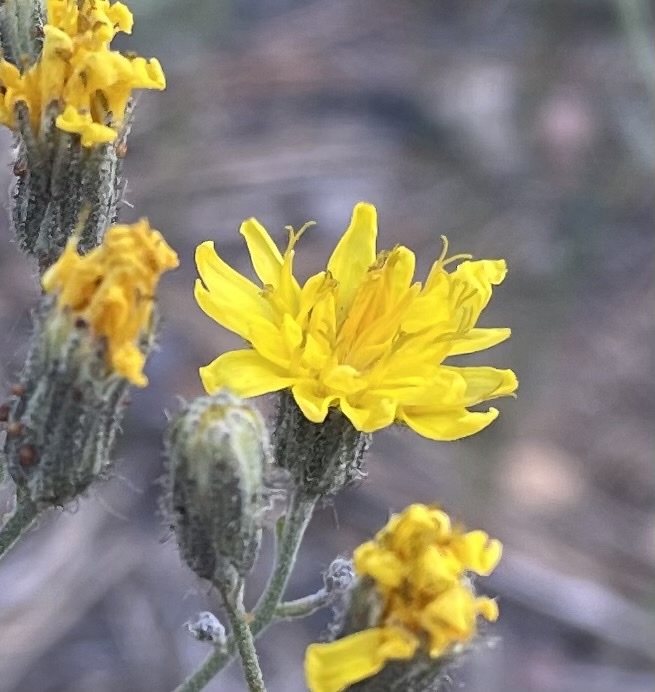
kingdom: Plantae
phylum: Tracheophyta
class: Magnoliopsida
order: Asterales
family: Asteraceae
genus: Hieracium
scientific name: Hieracium scouleri
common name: Hound's-tongue hawkweed
